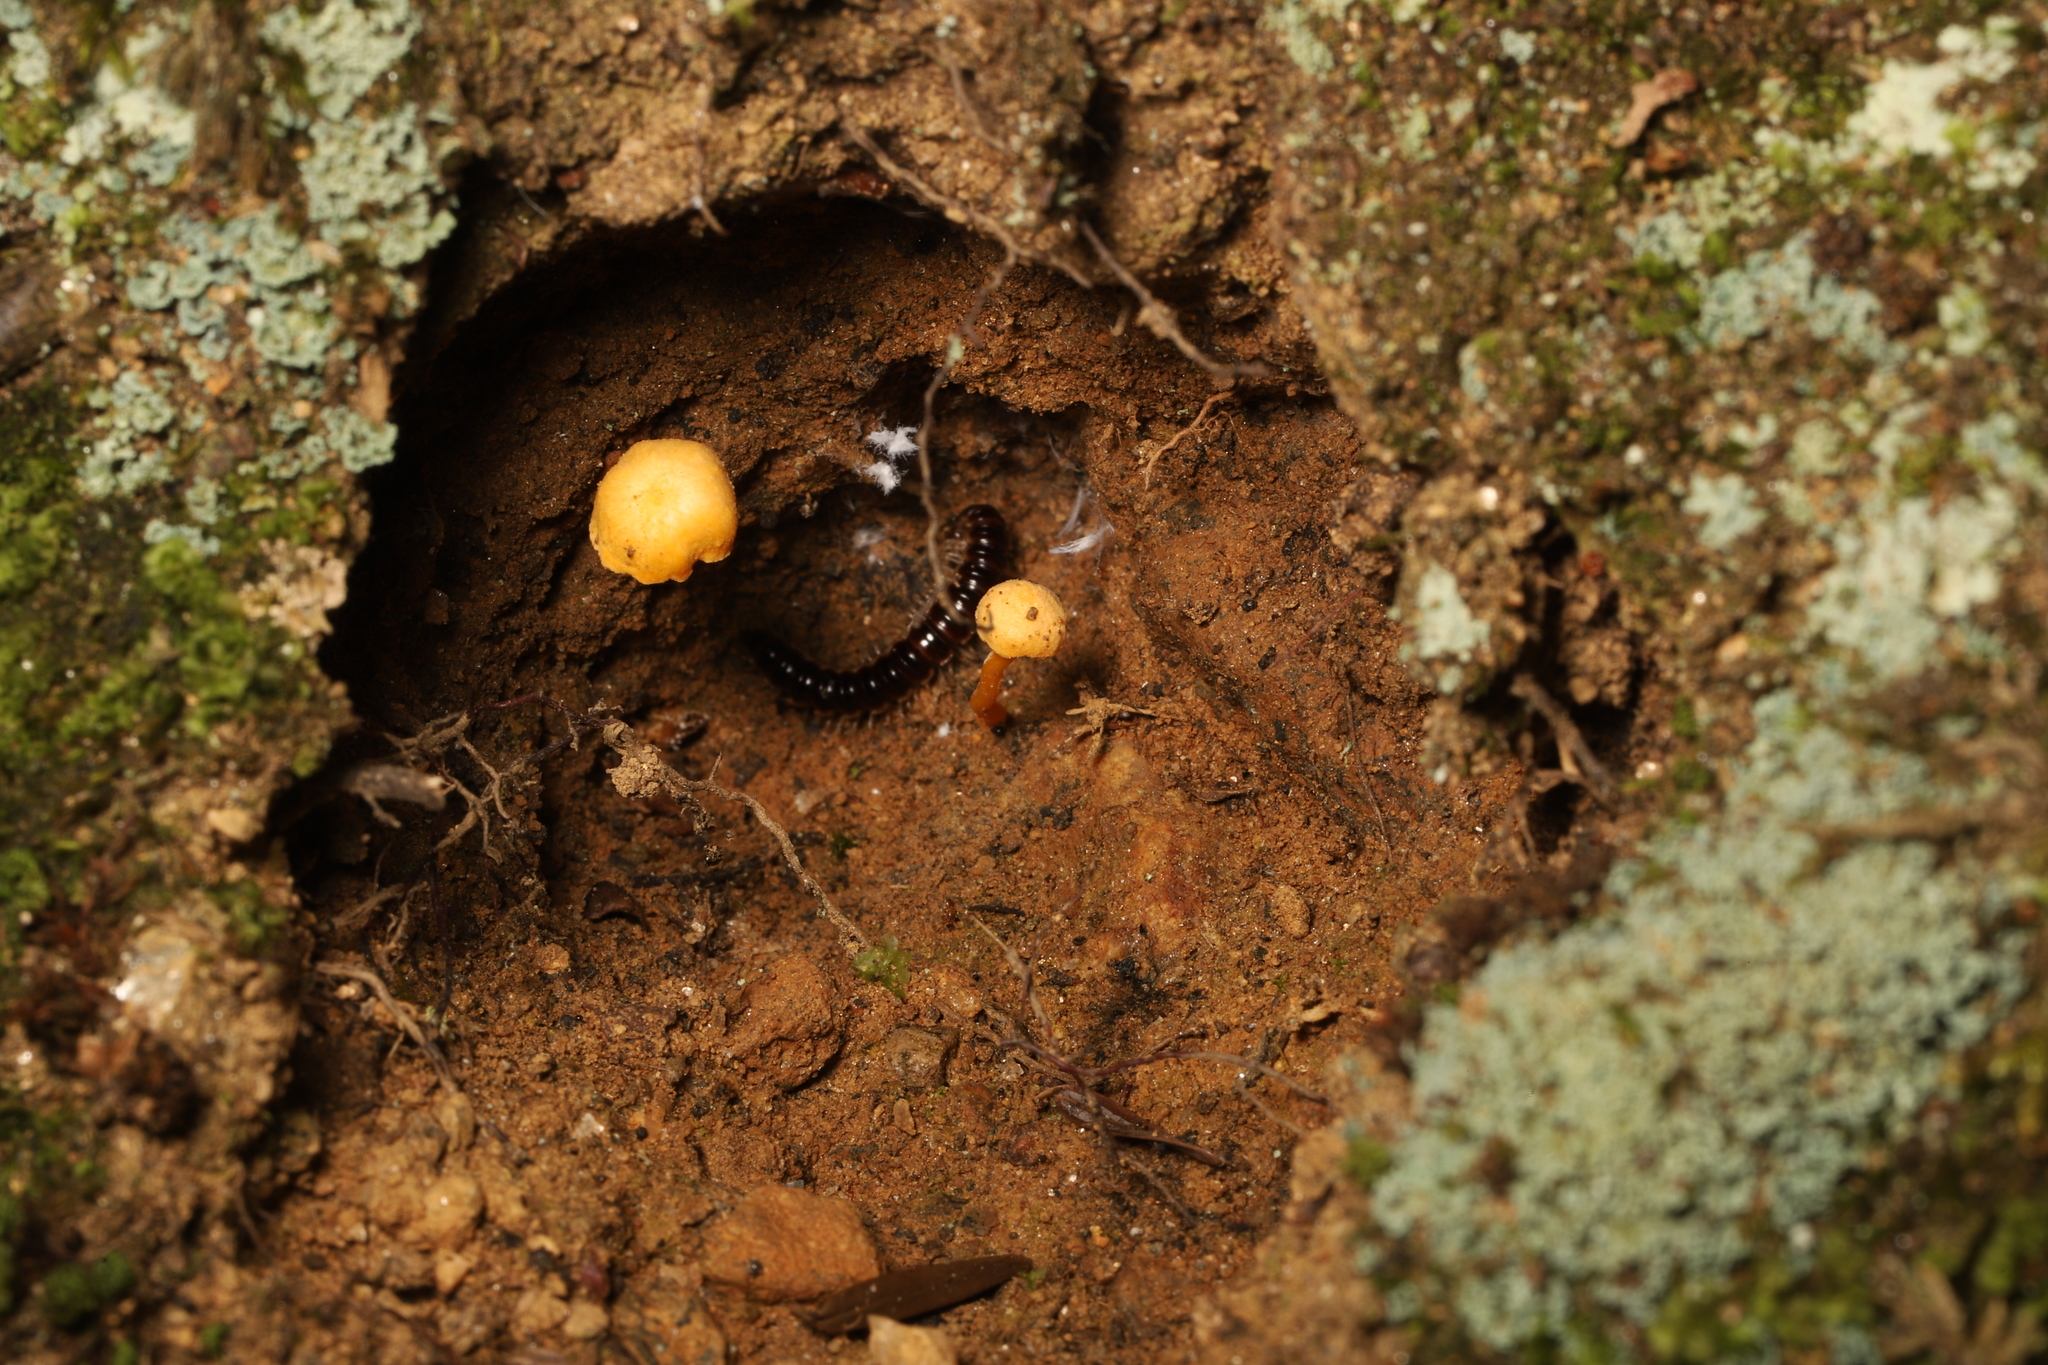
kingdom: Animalia
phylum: Arthropoda
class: Diplopoda
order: Polydesmida
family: Paradoxosomatidae
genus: Oxidus
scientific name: Oxidus gracilis
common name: Greenhouse millipede
